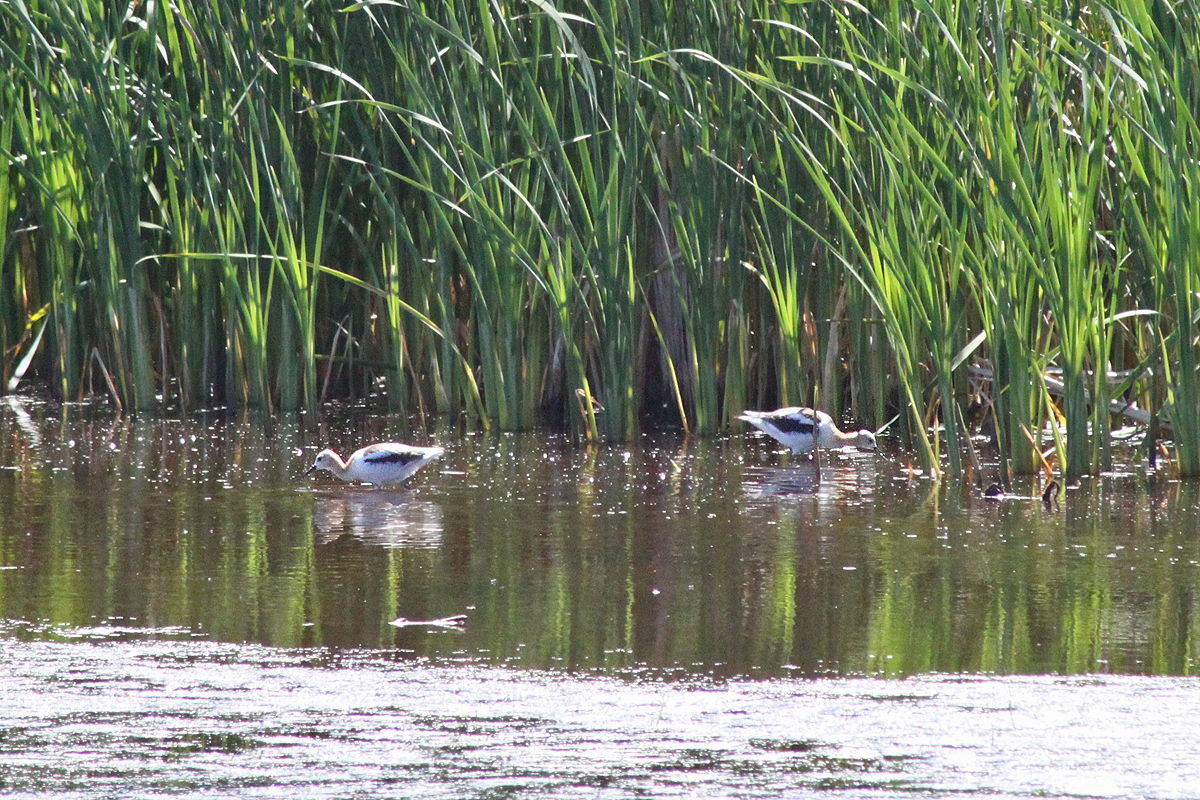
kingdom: Animalia
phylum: Chordata
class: Aves
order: Charadriiformes
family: Recurvirostridae
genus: Recurvirostra
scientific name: Recurvirostra americana
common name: American avocet
